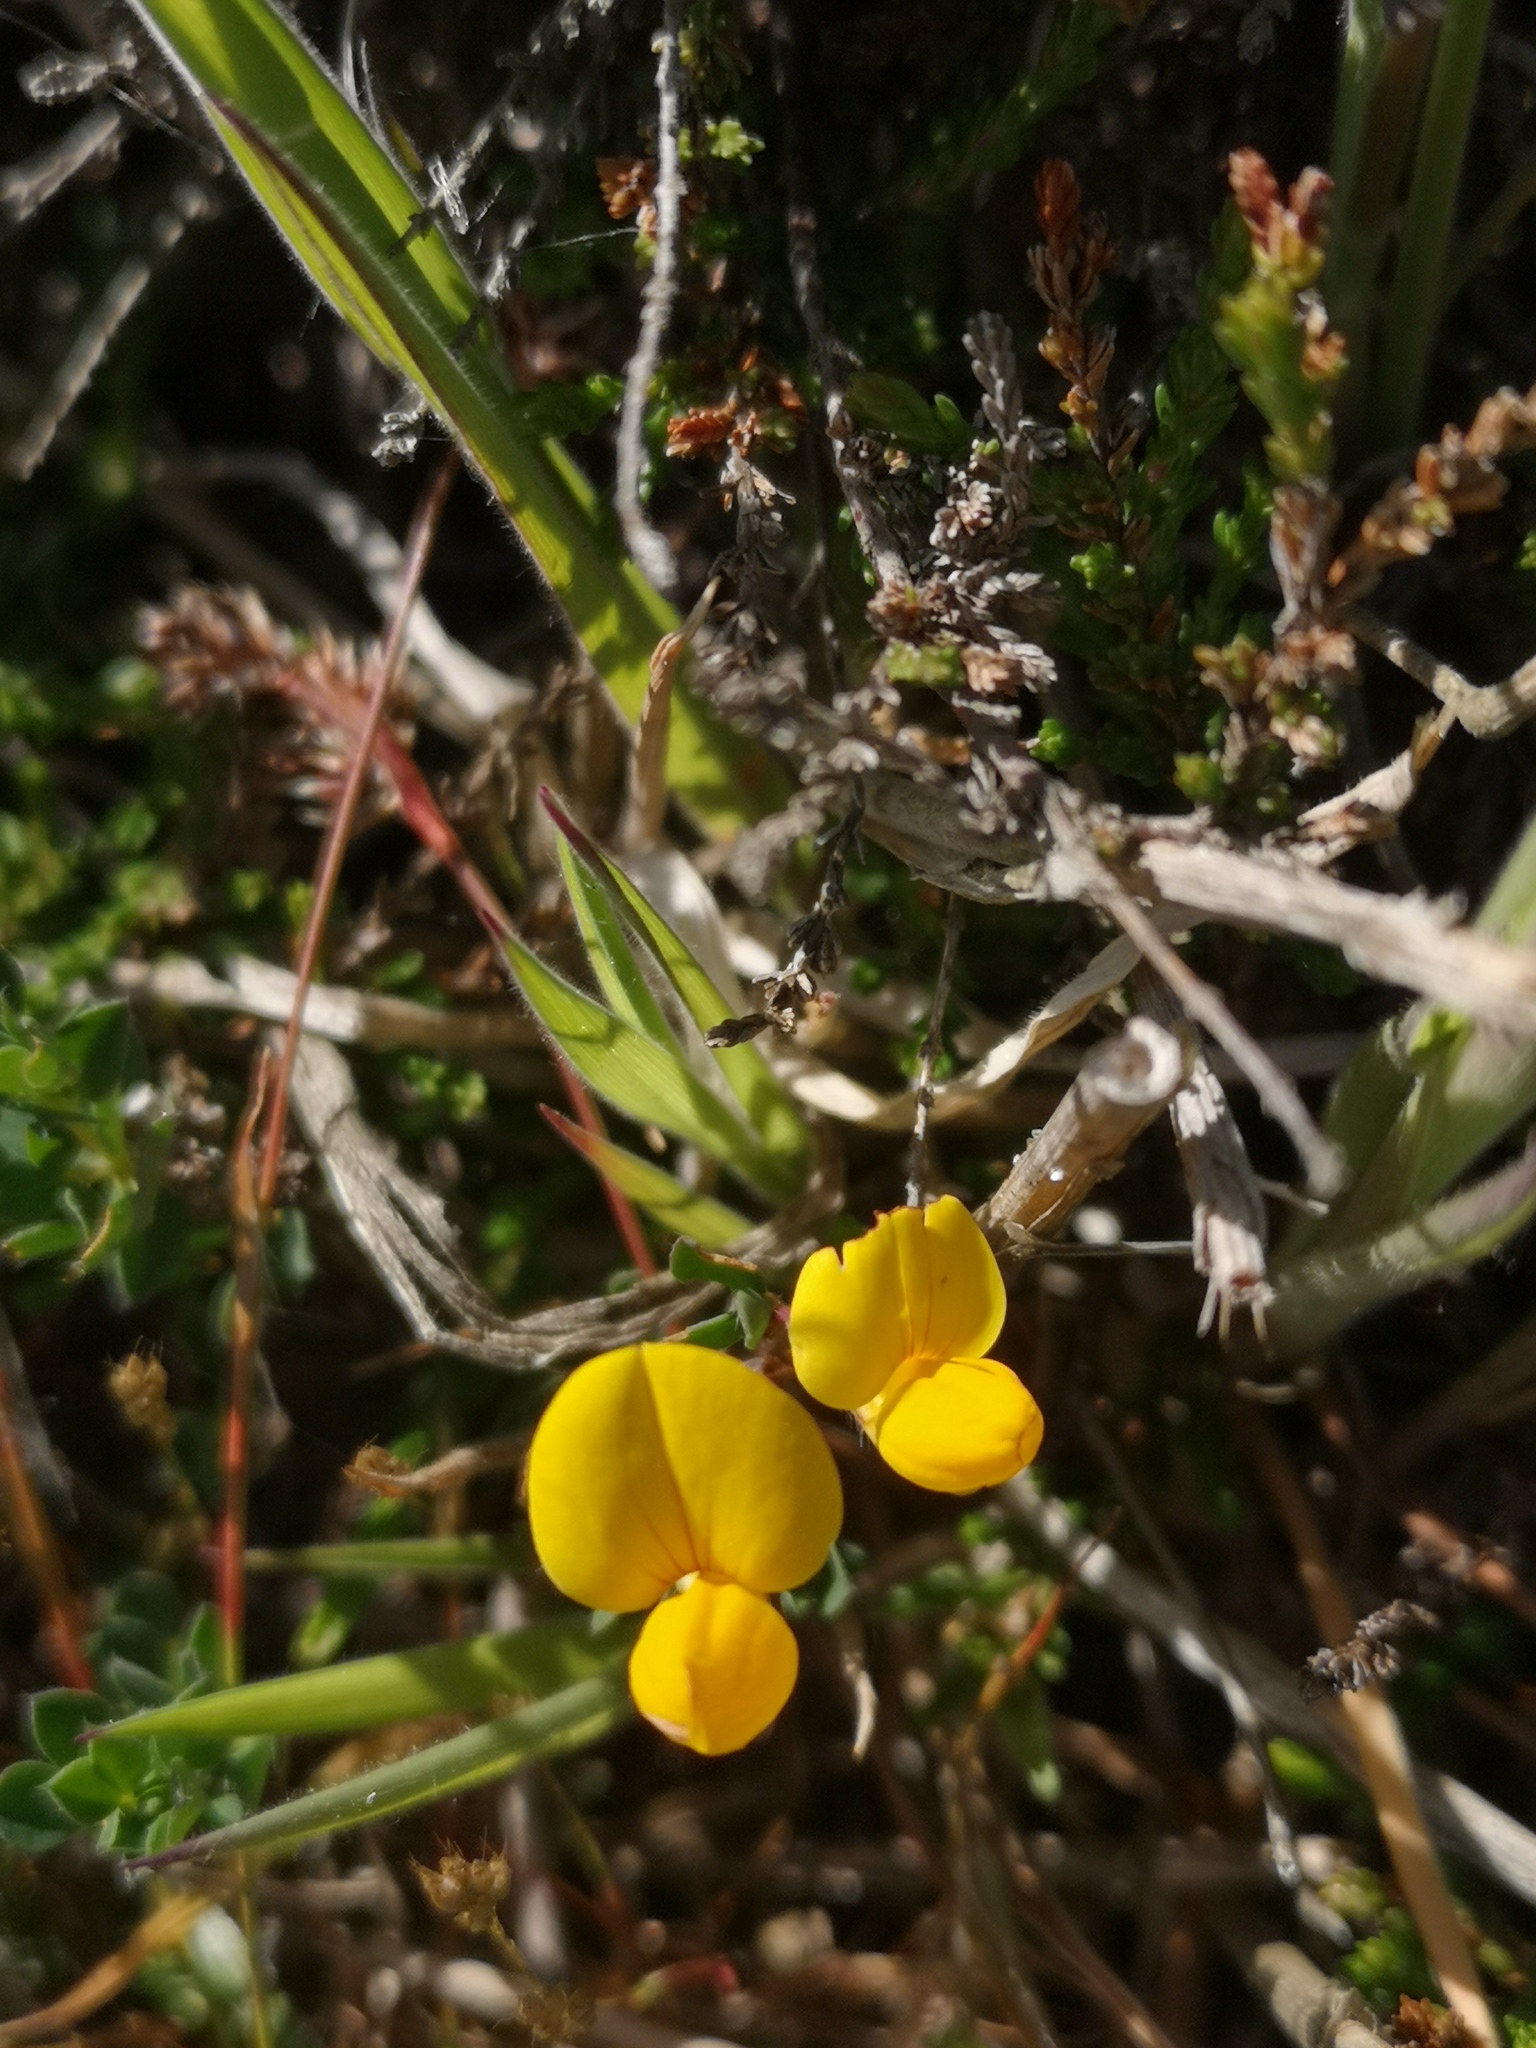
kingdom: Plantae
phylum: Tracheophyta
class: Magnoliopsida
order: Fabales
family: Fabaceae
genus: Lotus
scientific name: Lotus corniculatus
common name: Common bird's-foot-trefoil
